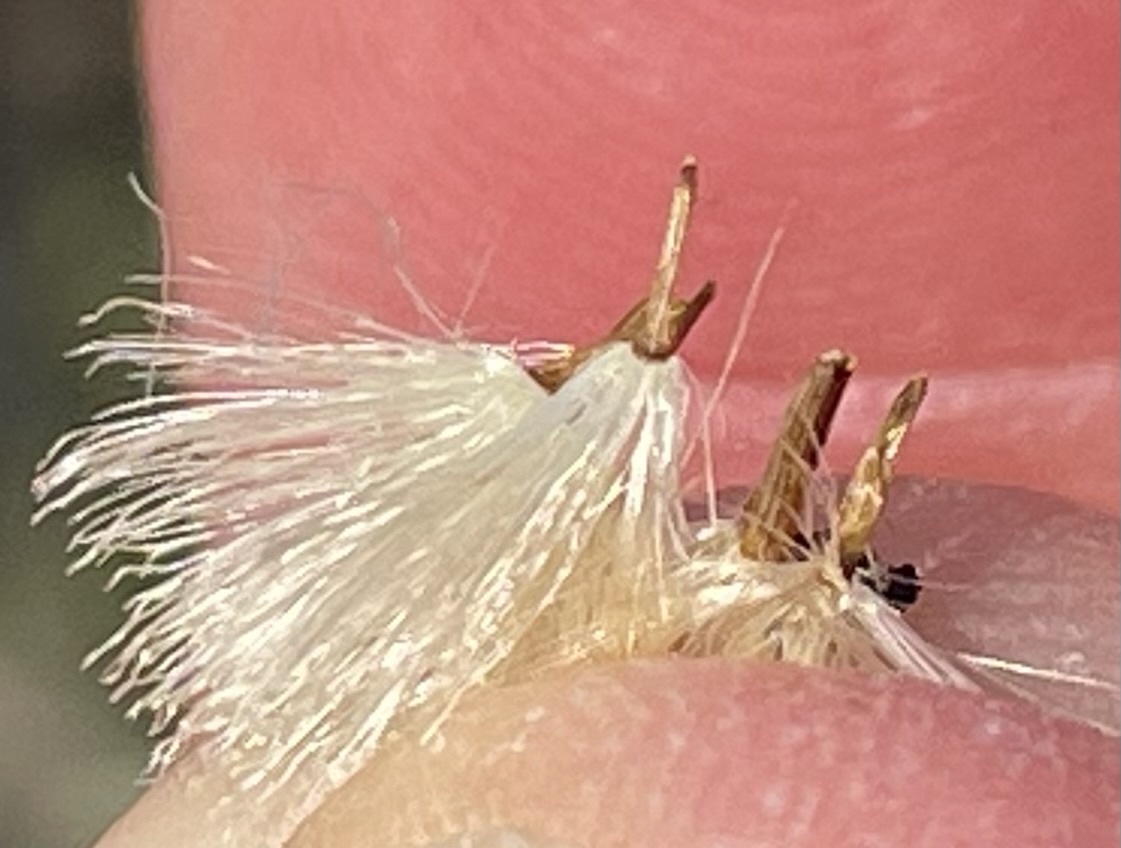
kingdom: Plantae
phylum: Tracheophyta
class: Magnoliopsida
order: Asterales
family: Asteraceae
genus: Ericameria
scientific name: Ericameria ericoides
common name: California goldenbush
